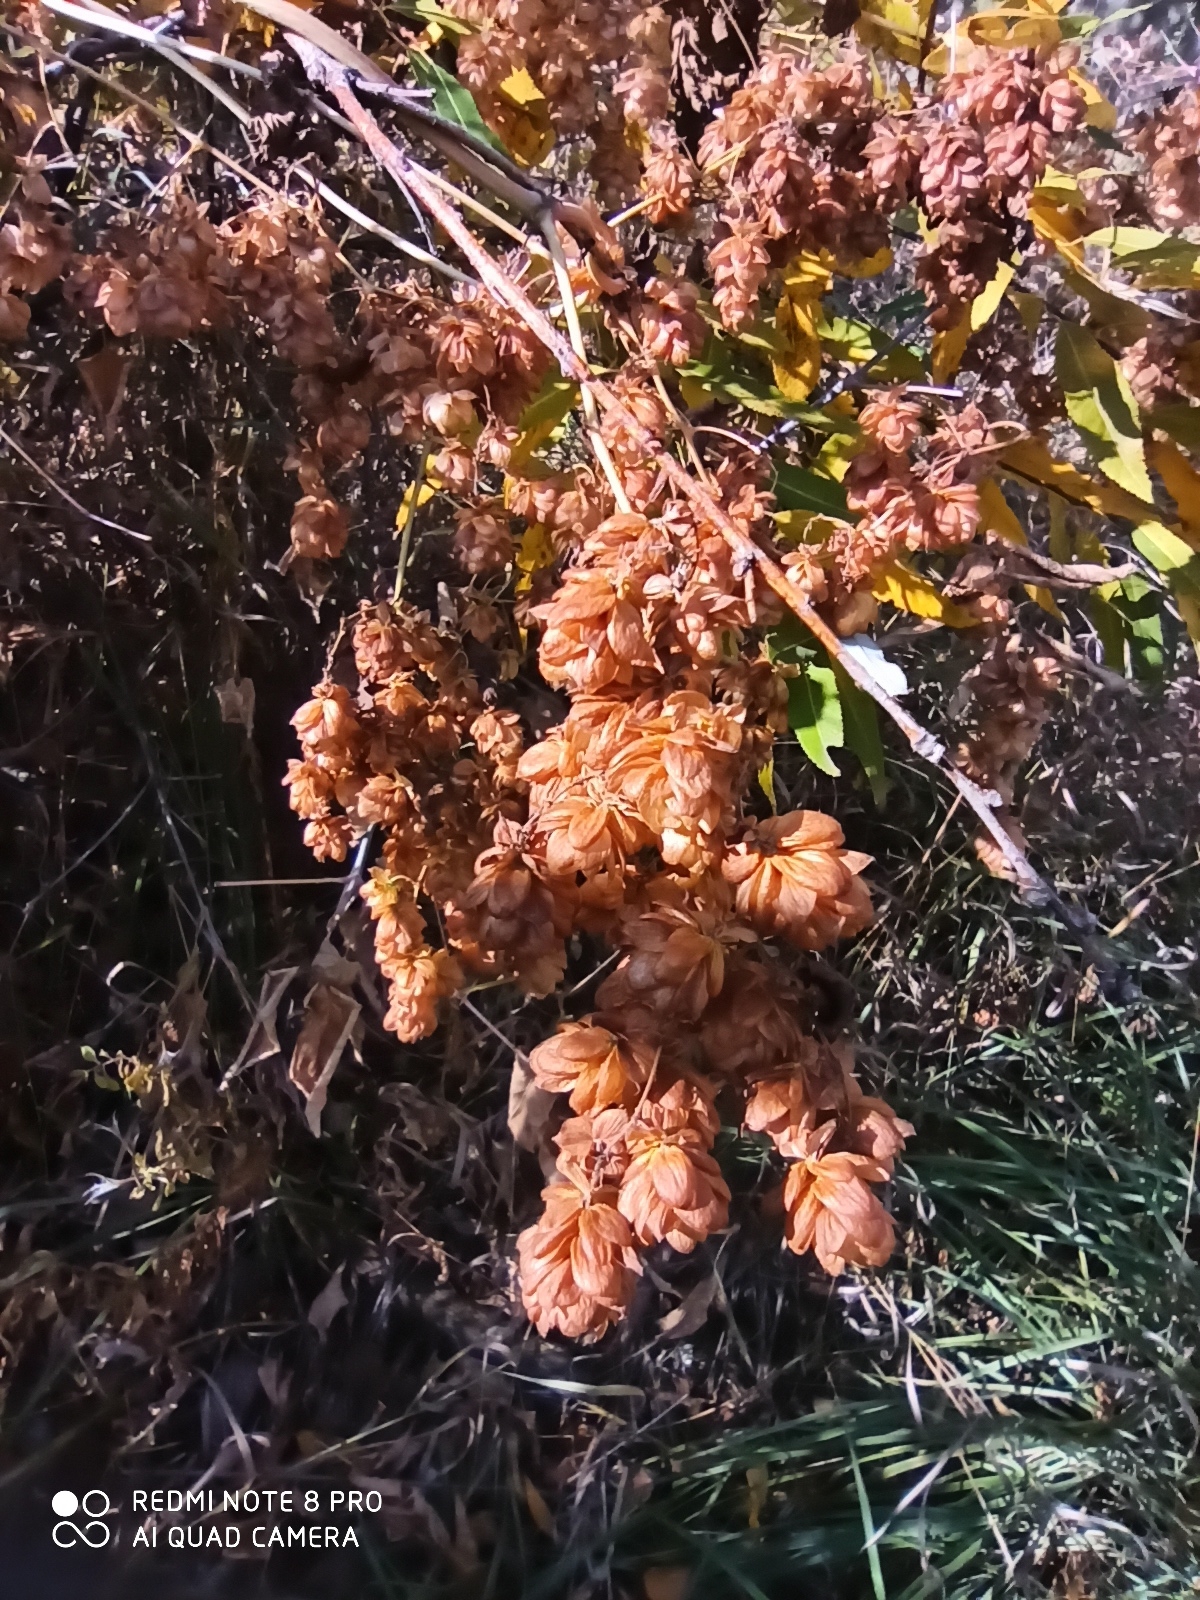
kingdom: Plantae
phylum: Tracheophyta
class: Magnoliopsida
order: Rosales
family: Cannabaceae
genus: Humulus
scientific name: Humulus lupulus
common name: Hop
